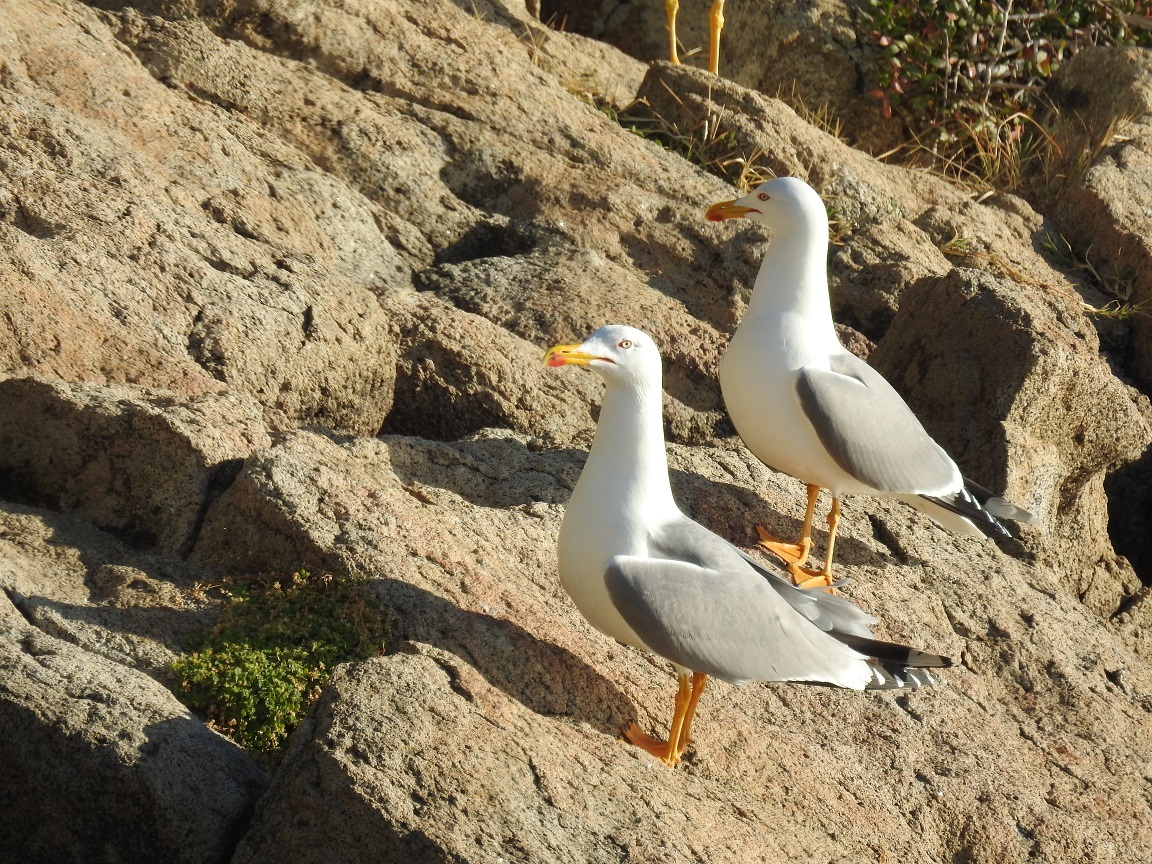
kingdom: Animalia
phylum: Chordata
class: Aves
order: Charadriiformes
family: Laridae
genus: Larus
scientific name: Larus michahellis
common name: Yellow-legged gull
